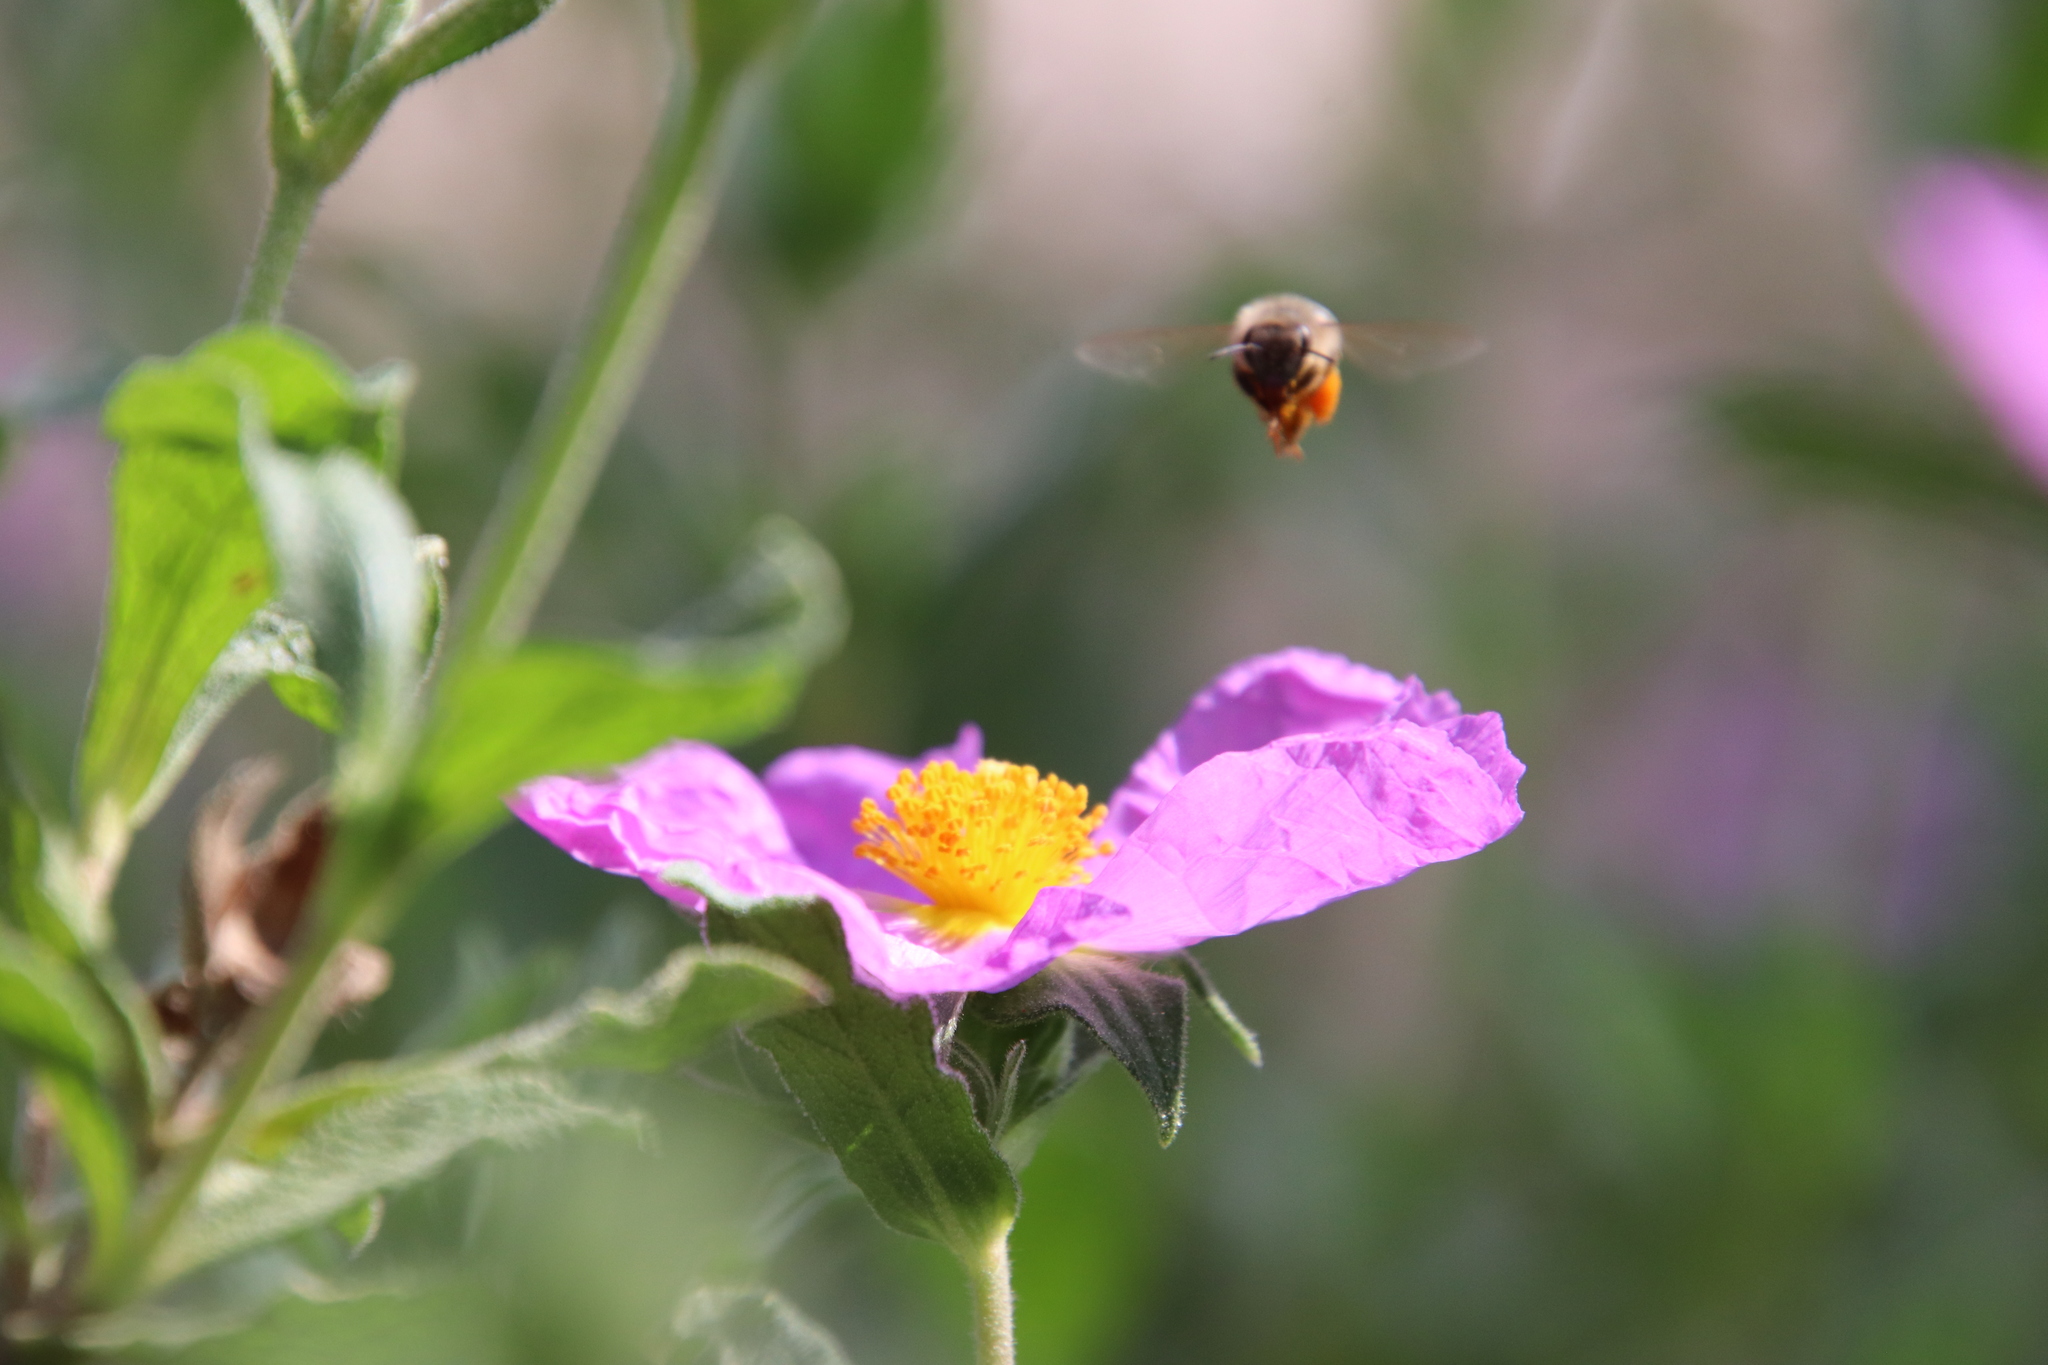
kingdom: Animalia
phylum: Arthropoda
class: Insecta
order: Hymenoptera
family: Apidae
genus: Apis
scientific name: Apis mellifera
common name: Honey bee
